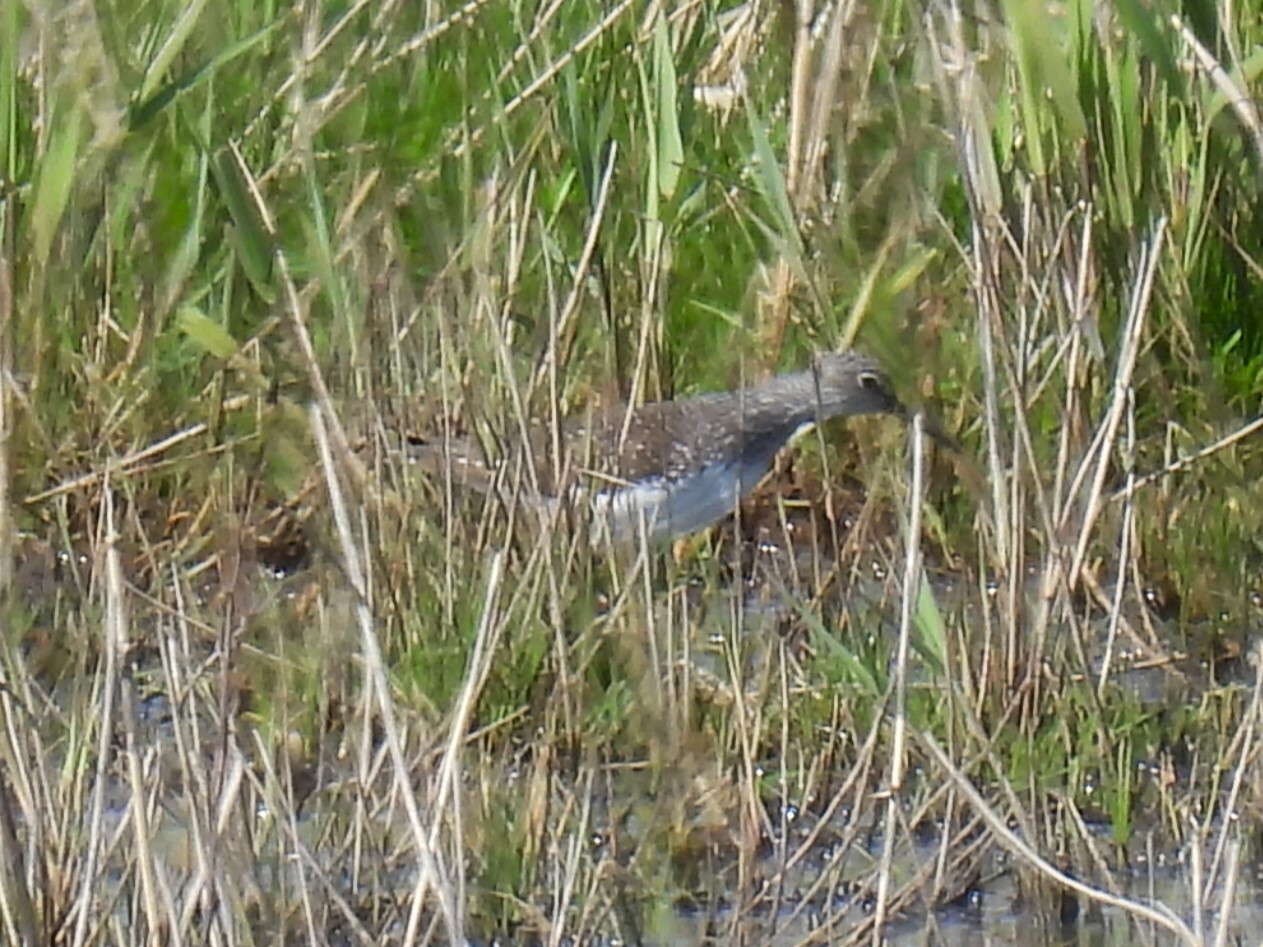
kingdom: Animalia
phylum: Chordata
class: Aves
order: Charadriiformes
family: Scolopacidae
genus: Tringa
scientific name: Tringa ochropus
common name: Green sandpiper
